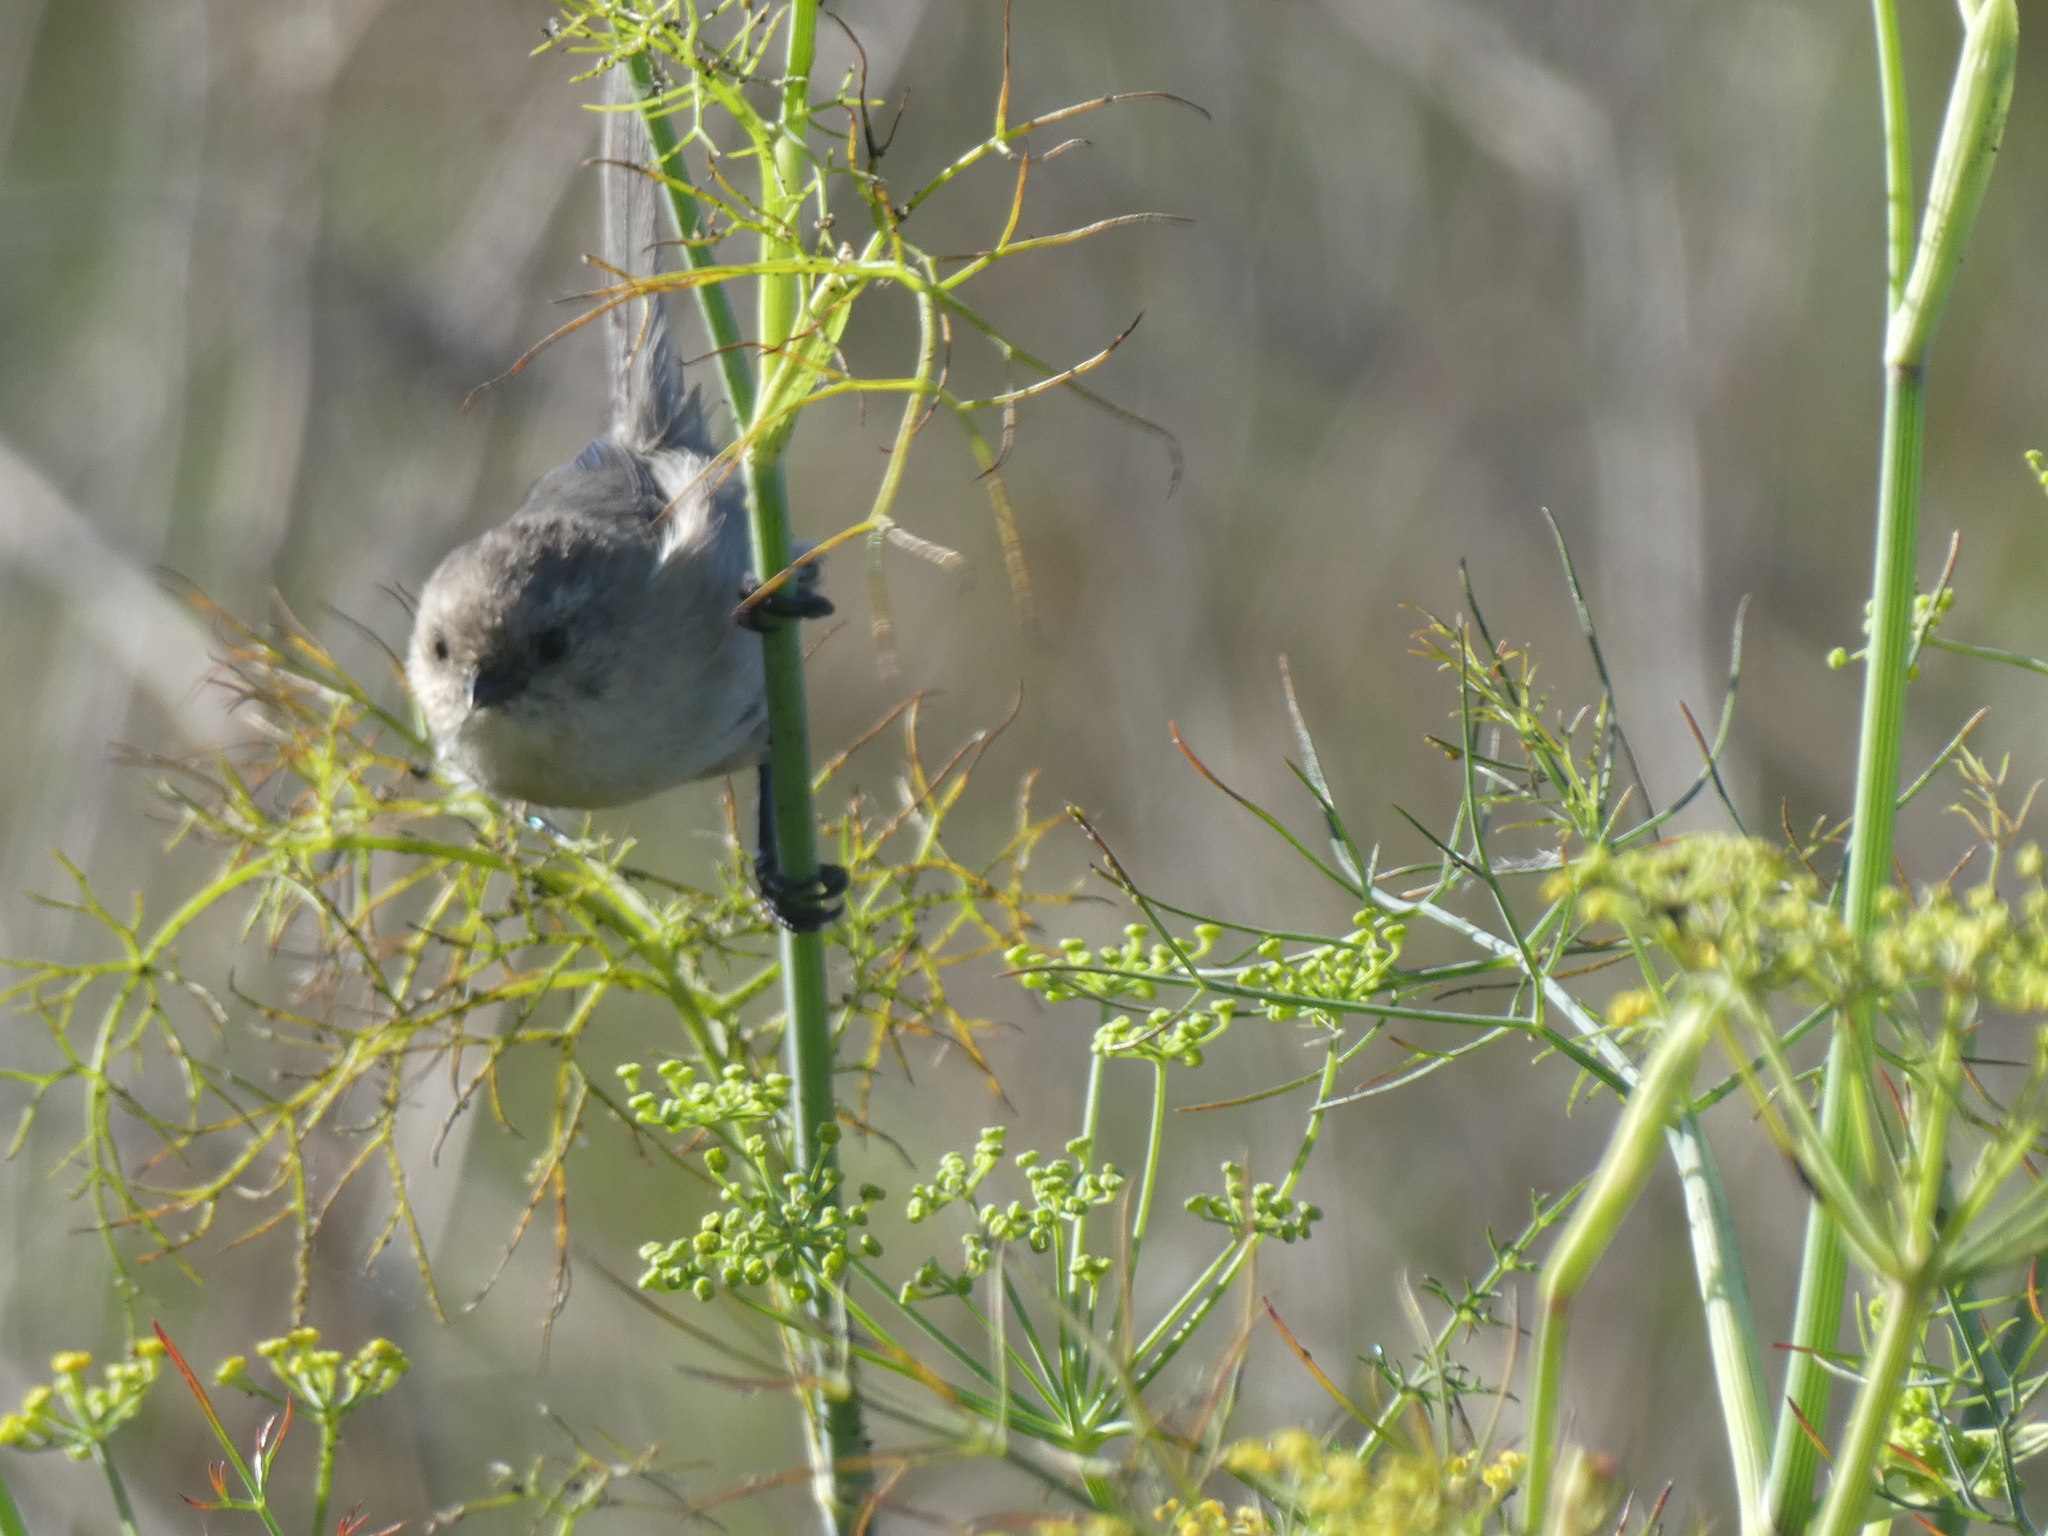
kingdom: Animalia
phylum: Chordata
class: Aves
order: Passeriformes
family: Aegithalidae
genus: Psaltriparus
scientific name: Psaltriparus minimus
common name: American bushtit
